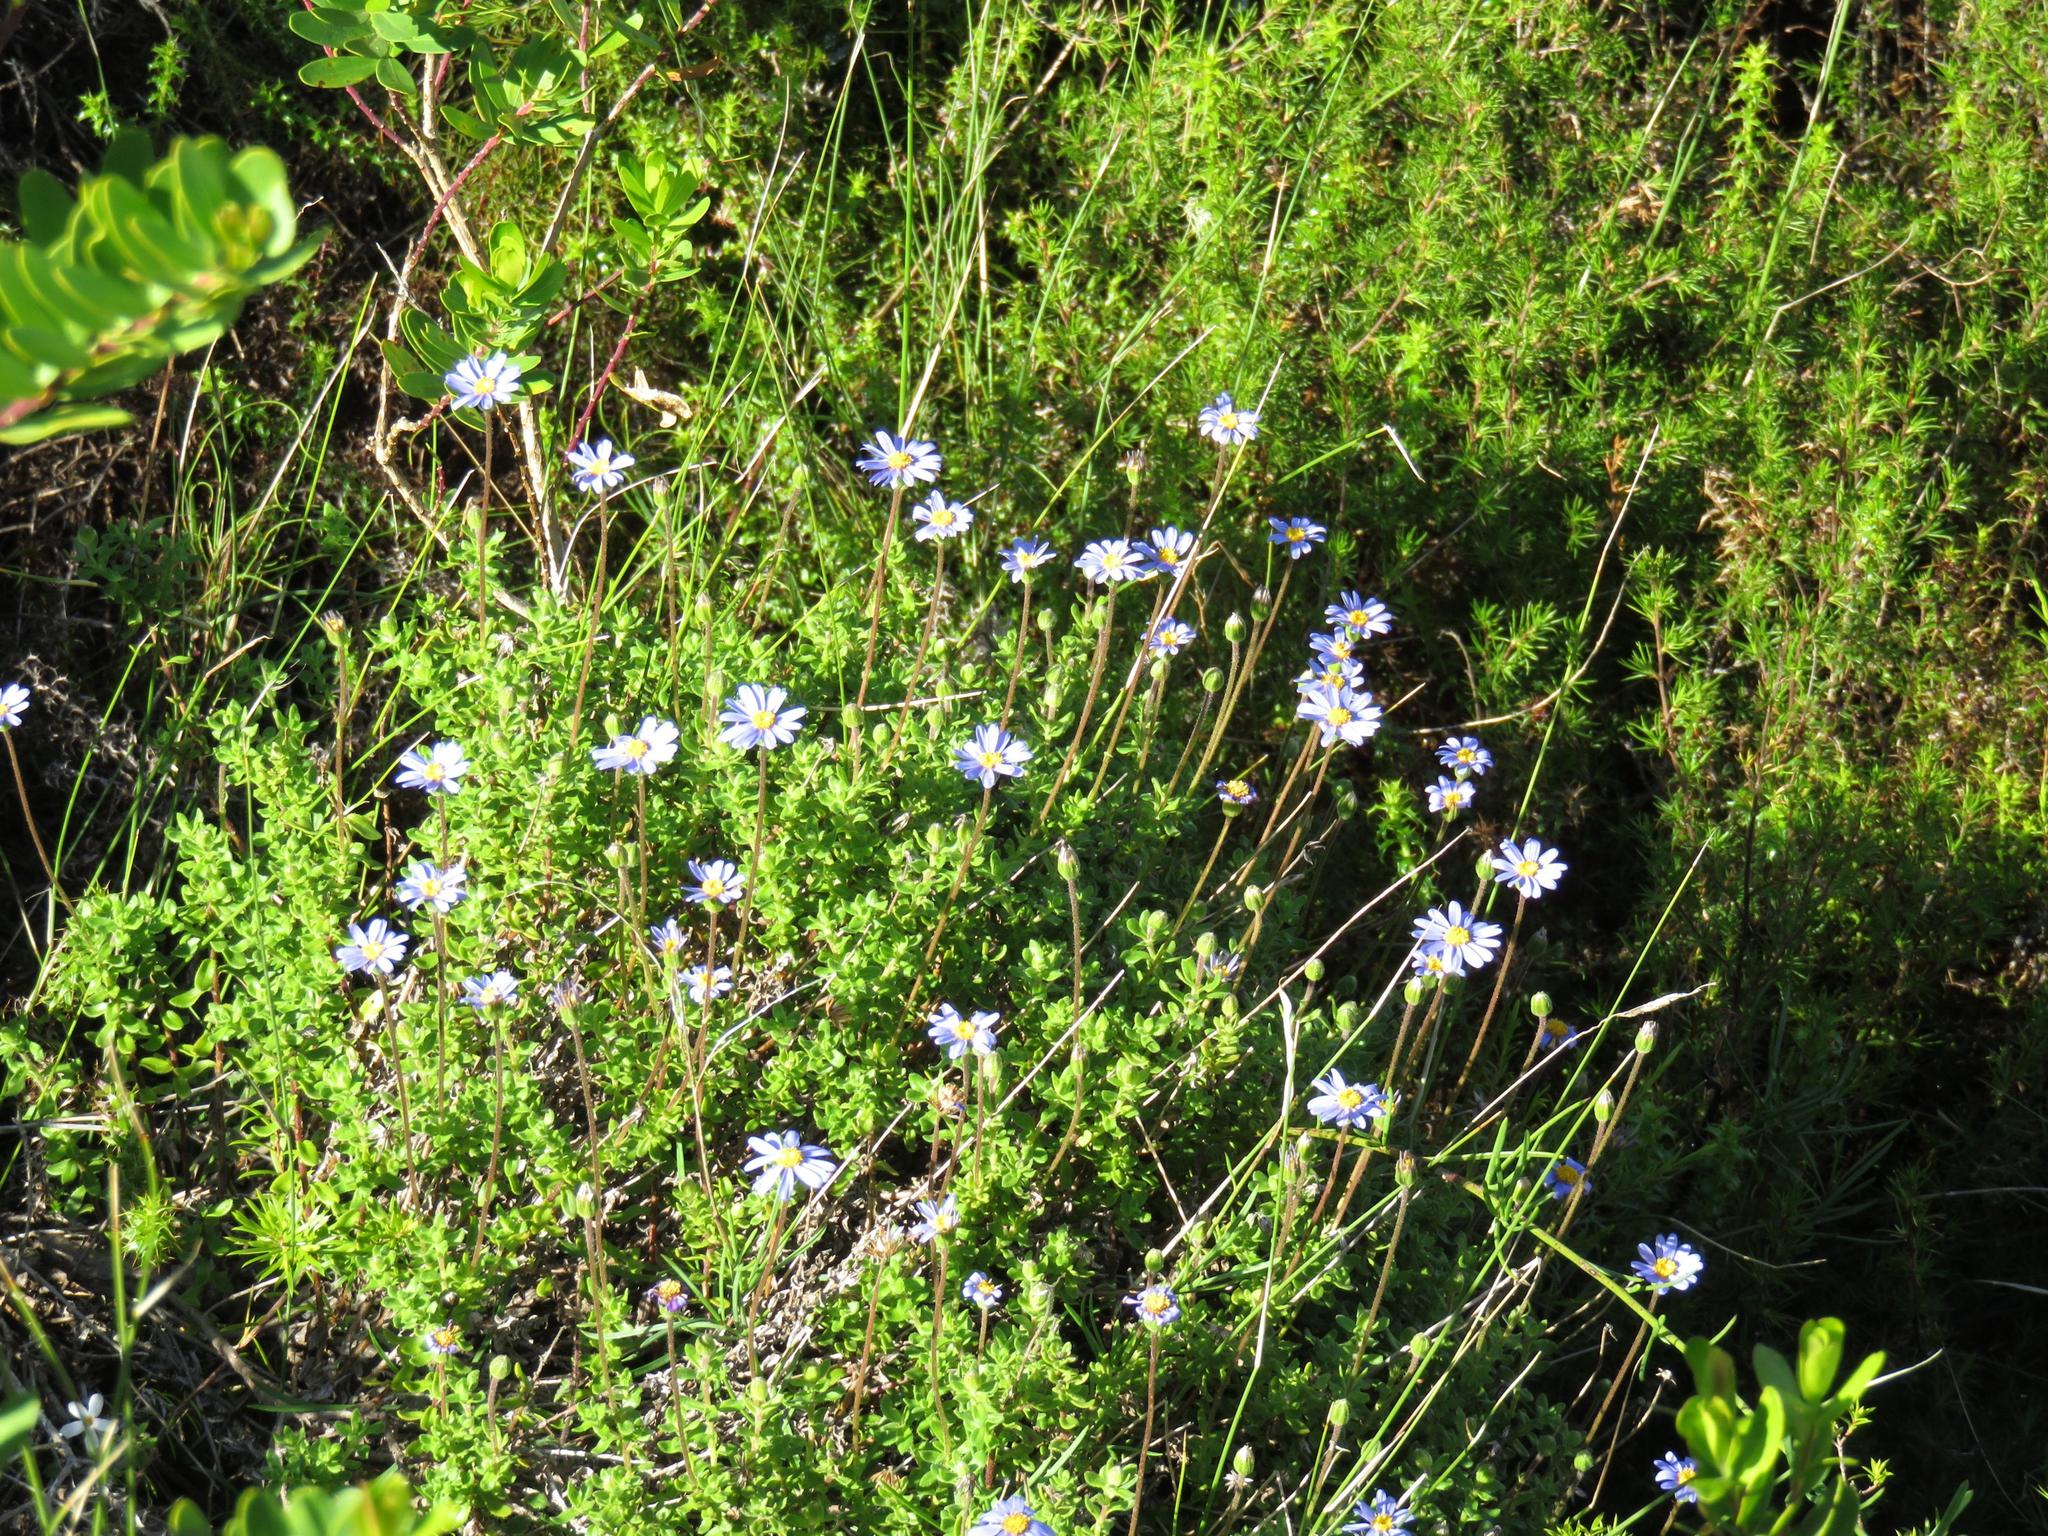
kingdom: Plantae
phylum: Tracheophyta
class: Magnoliopsida
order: Asterales
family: Asteraceae
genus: Felicia
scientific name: Felicia aethiopica
